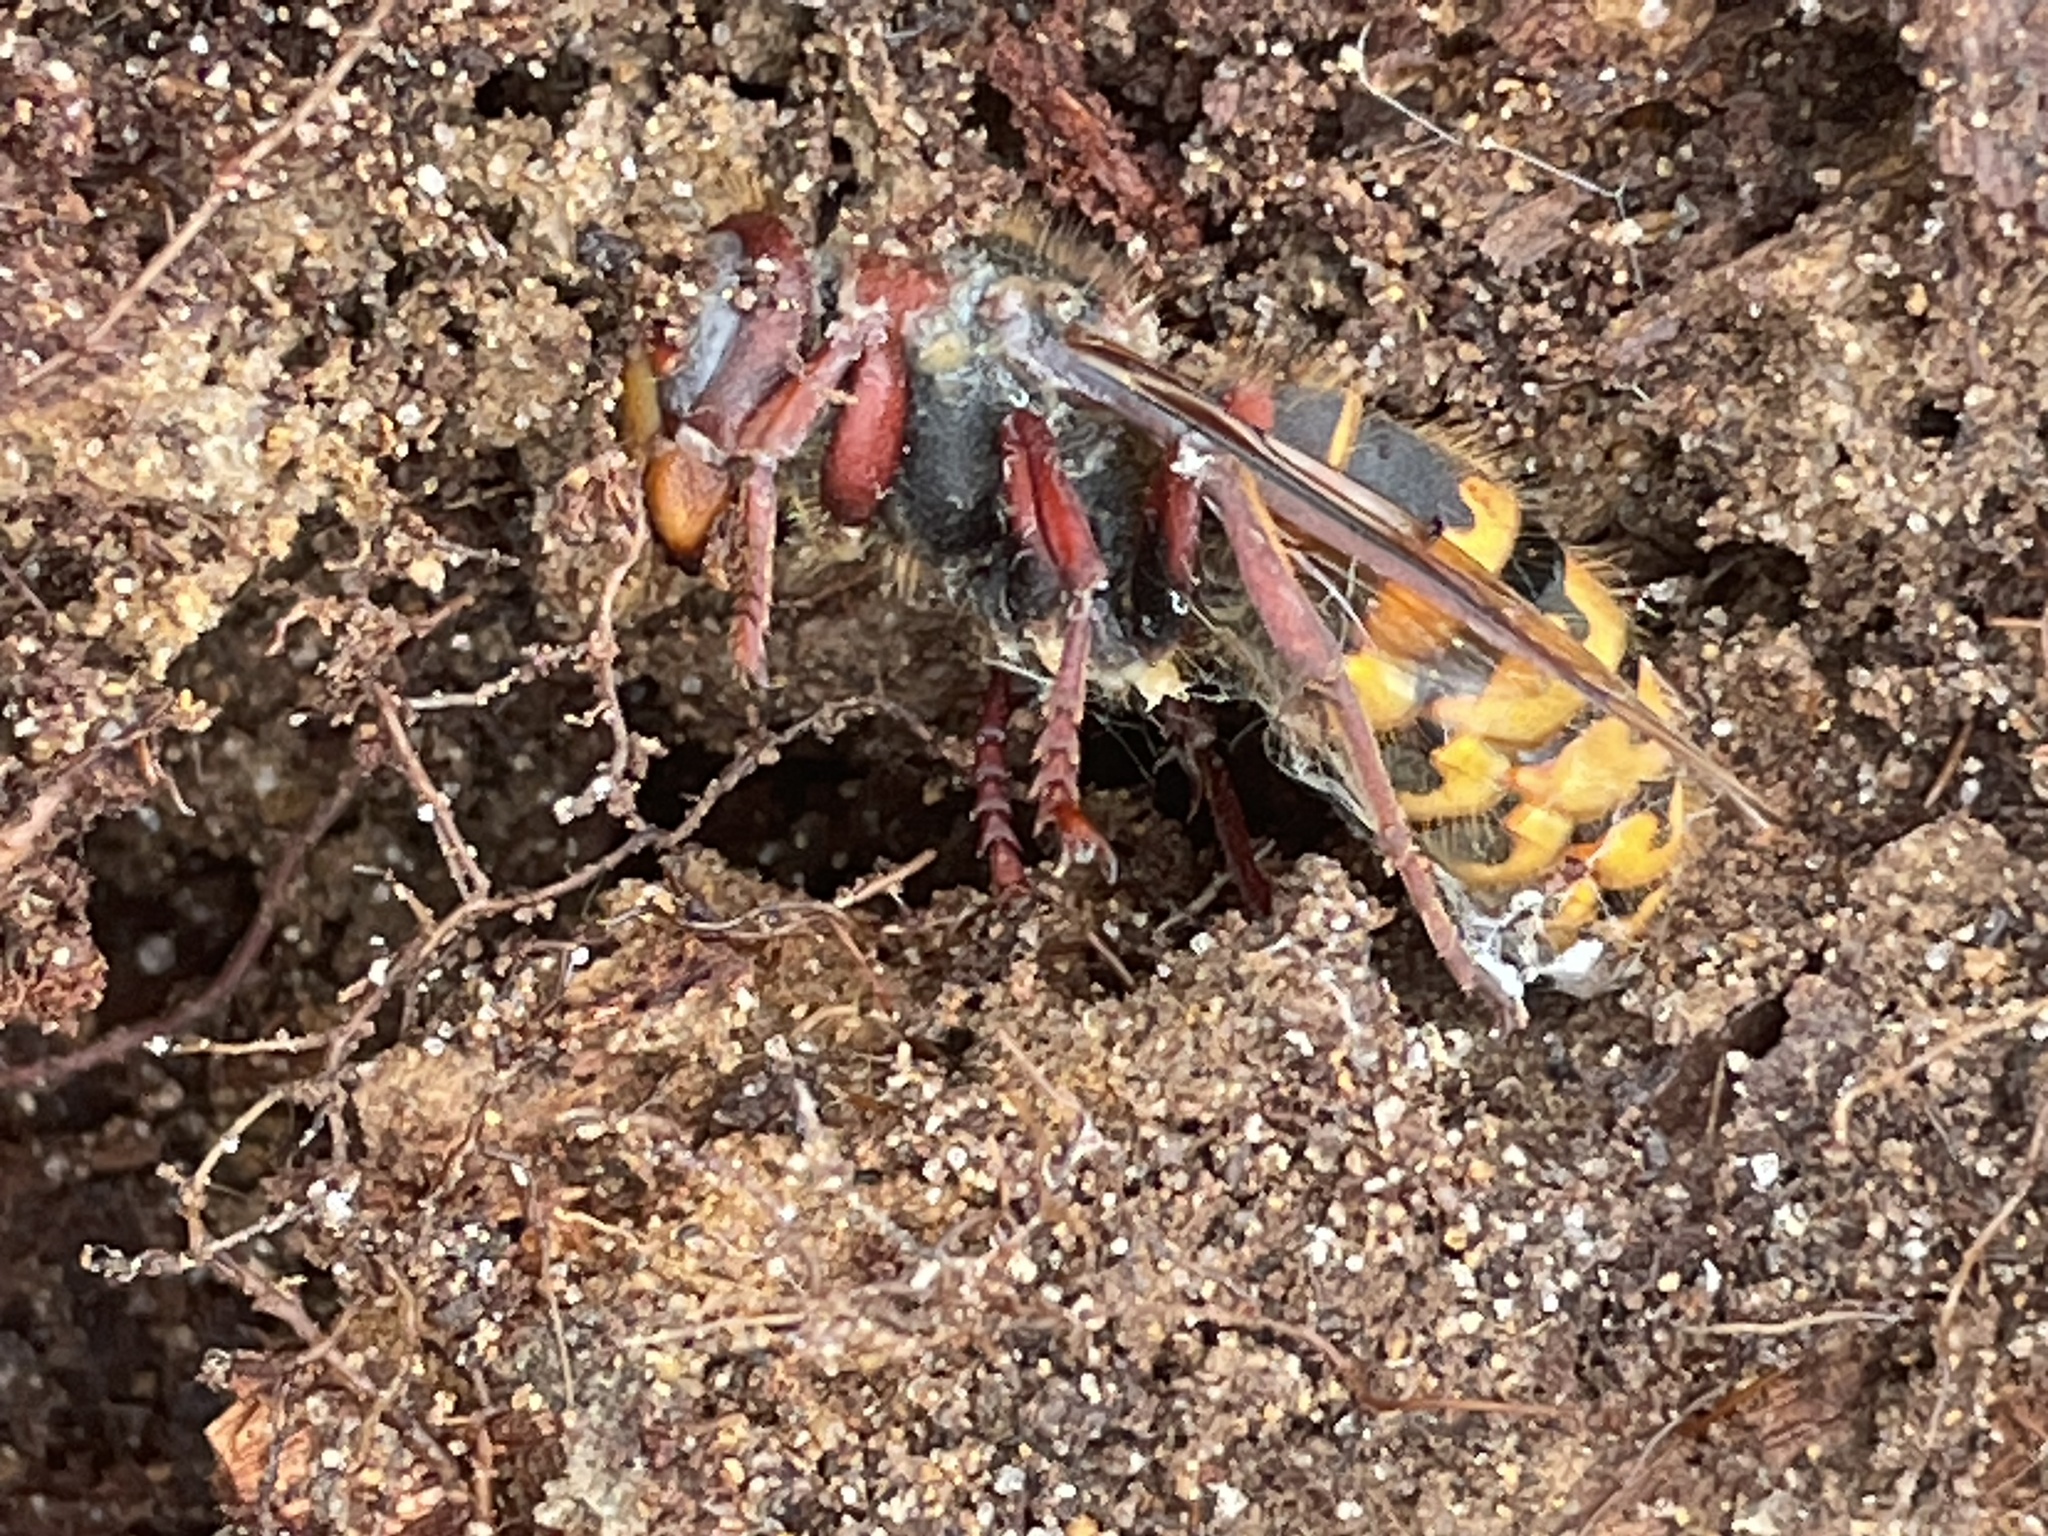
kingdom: Animalia
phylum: Arthropoda
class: Insecta
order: Hymenoptera
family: Vespidae
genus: Vespa
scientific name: Vespa crabro
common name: Hornet
